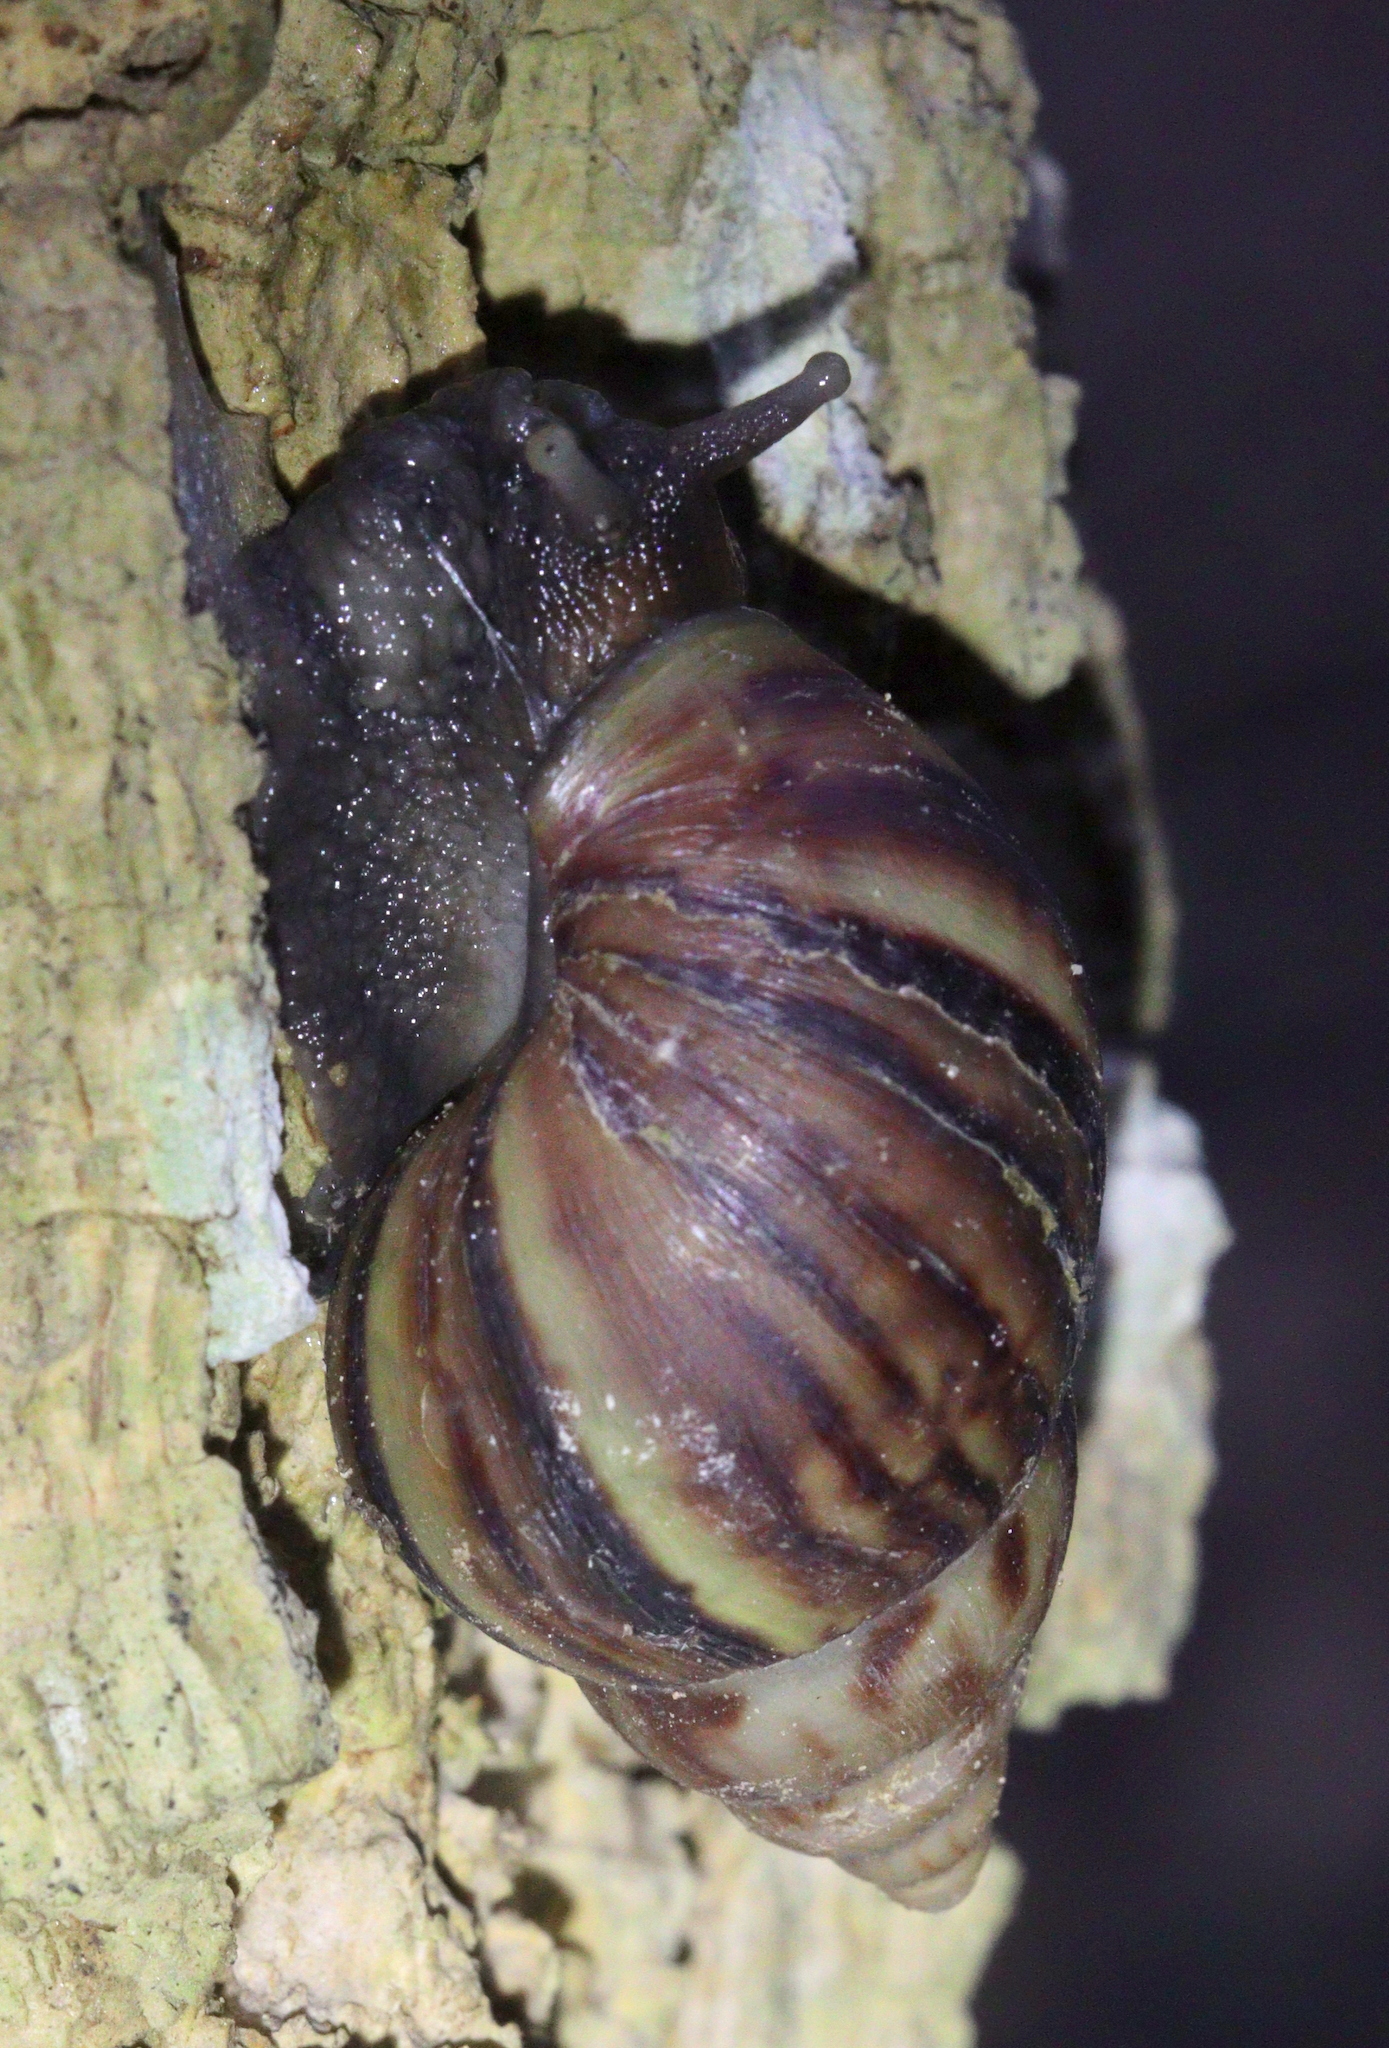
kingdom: Animalia
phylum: Mollusca
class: Gastropoda
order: Stylommatophora
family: Achatinidae
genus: Lissachatina
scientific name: Lissachatina fulica
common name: Giant african snail
